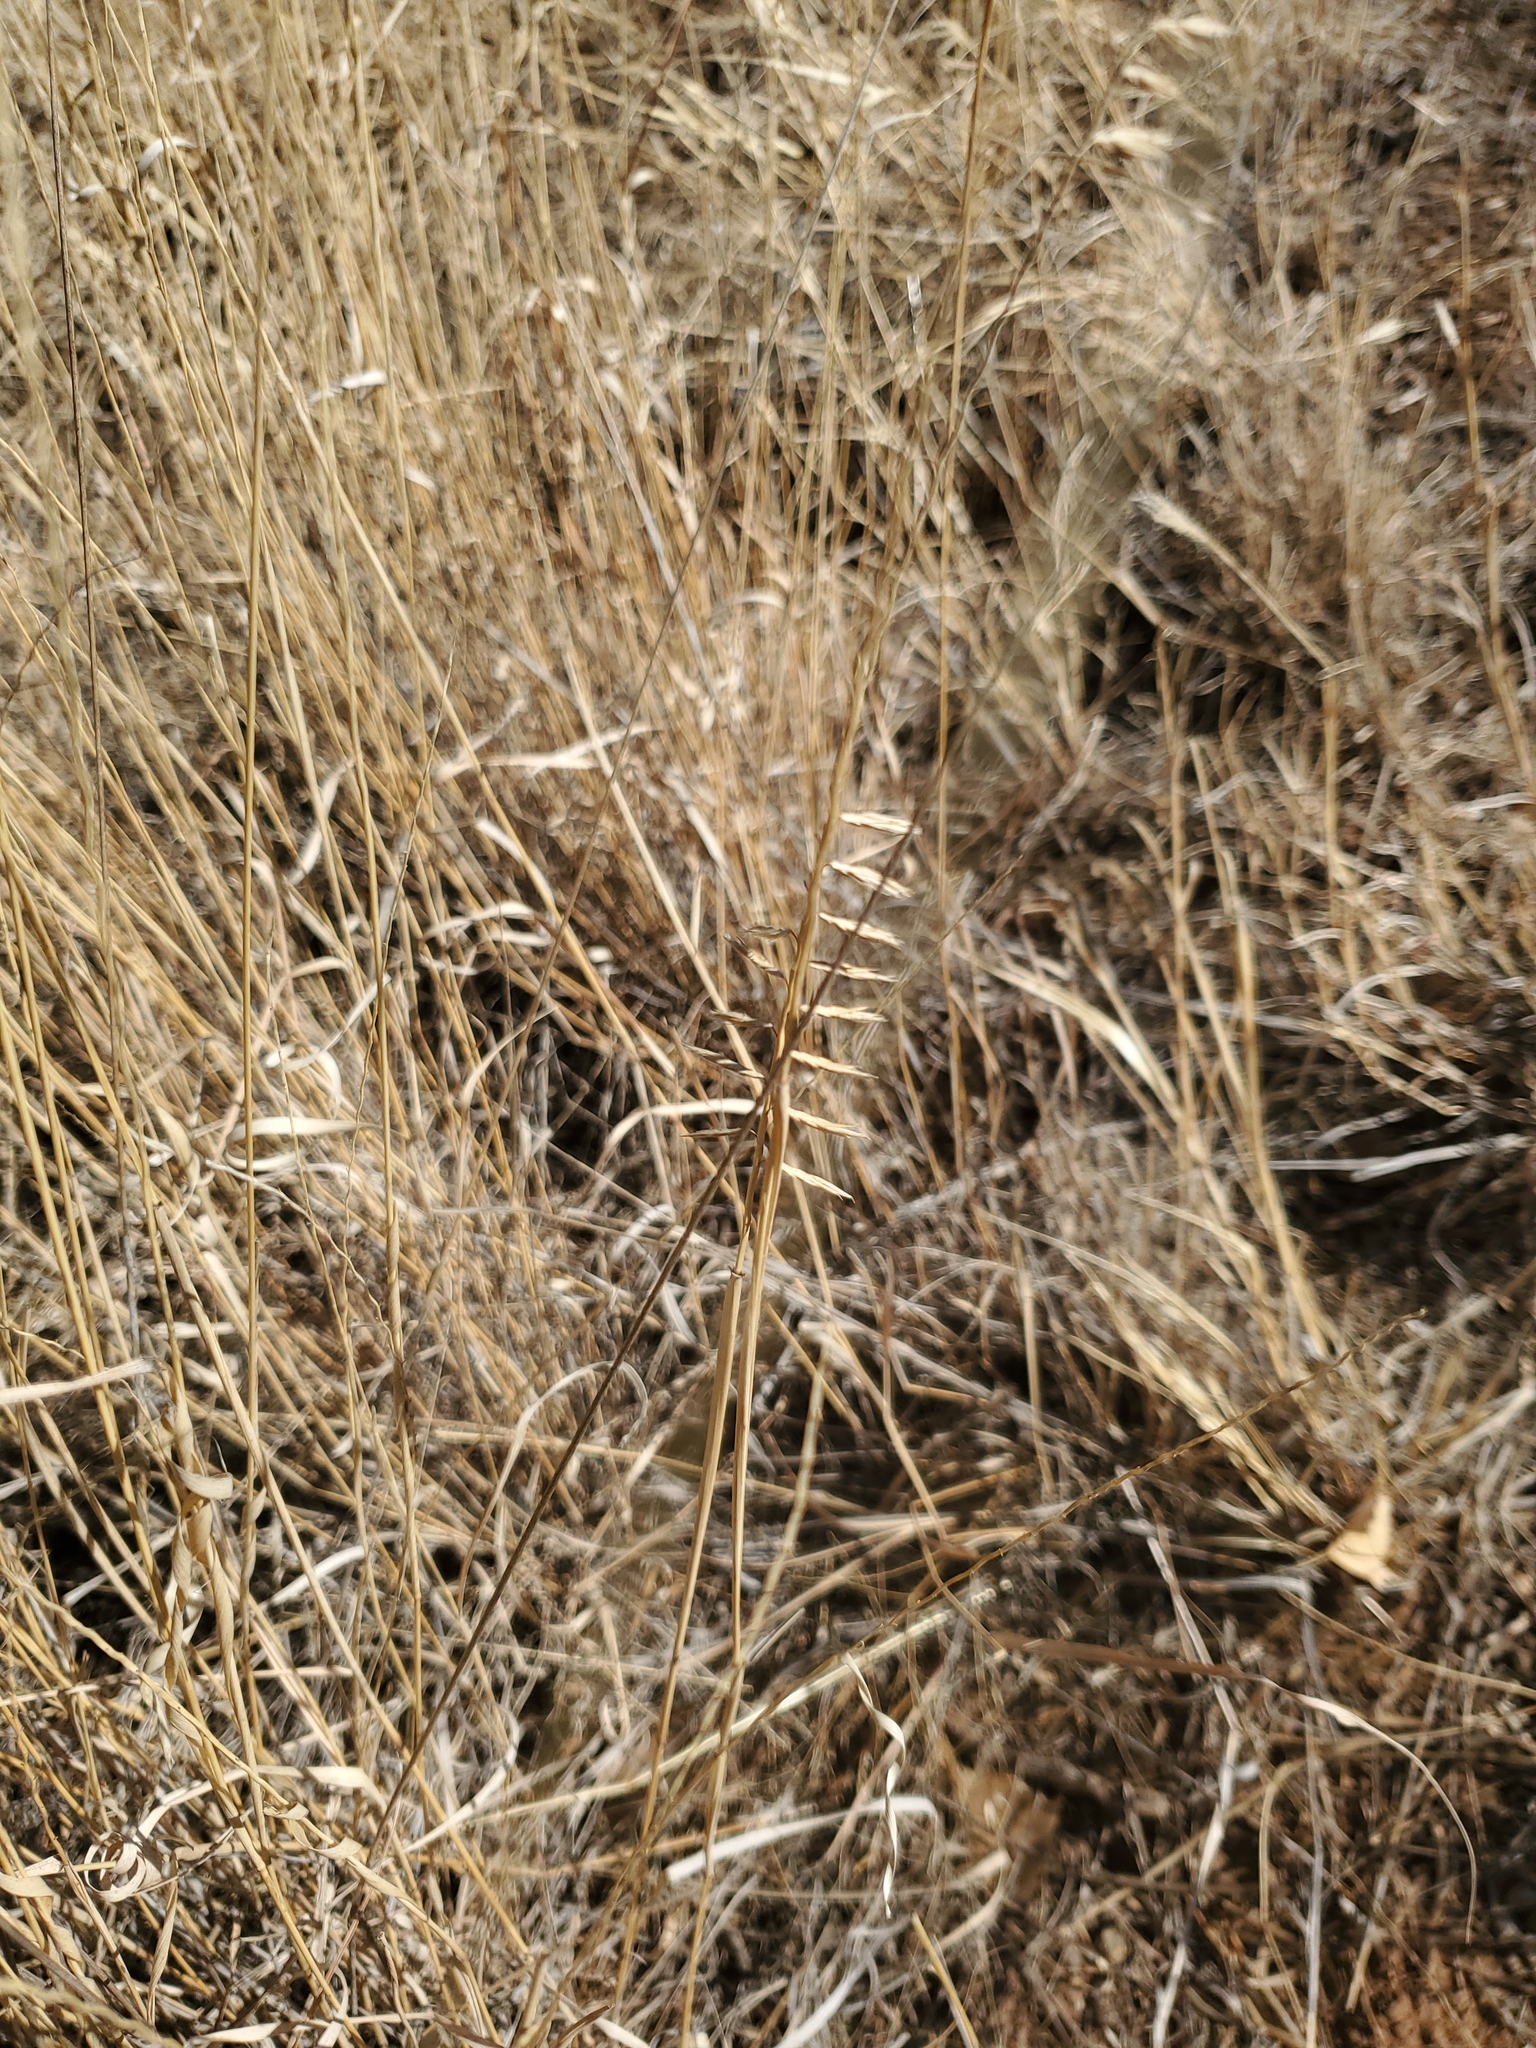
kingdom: Plantae
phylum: Tracheophyta
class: Liliopsida
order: Poales
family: Poaceae
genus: Bouteloua
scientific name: Bouteloua curtipendula
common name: Side-oats grama
